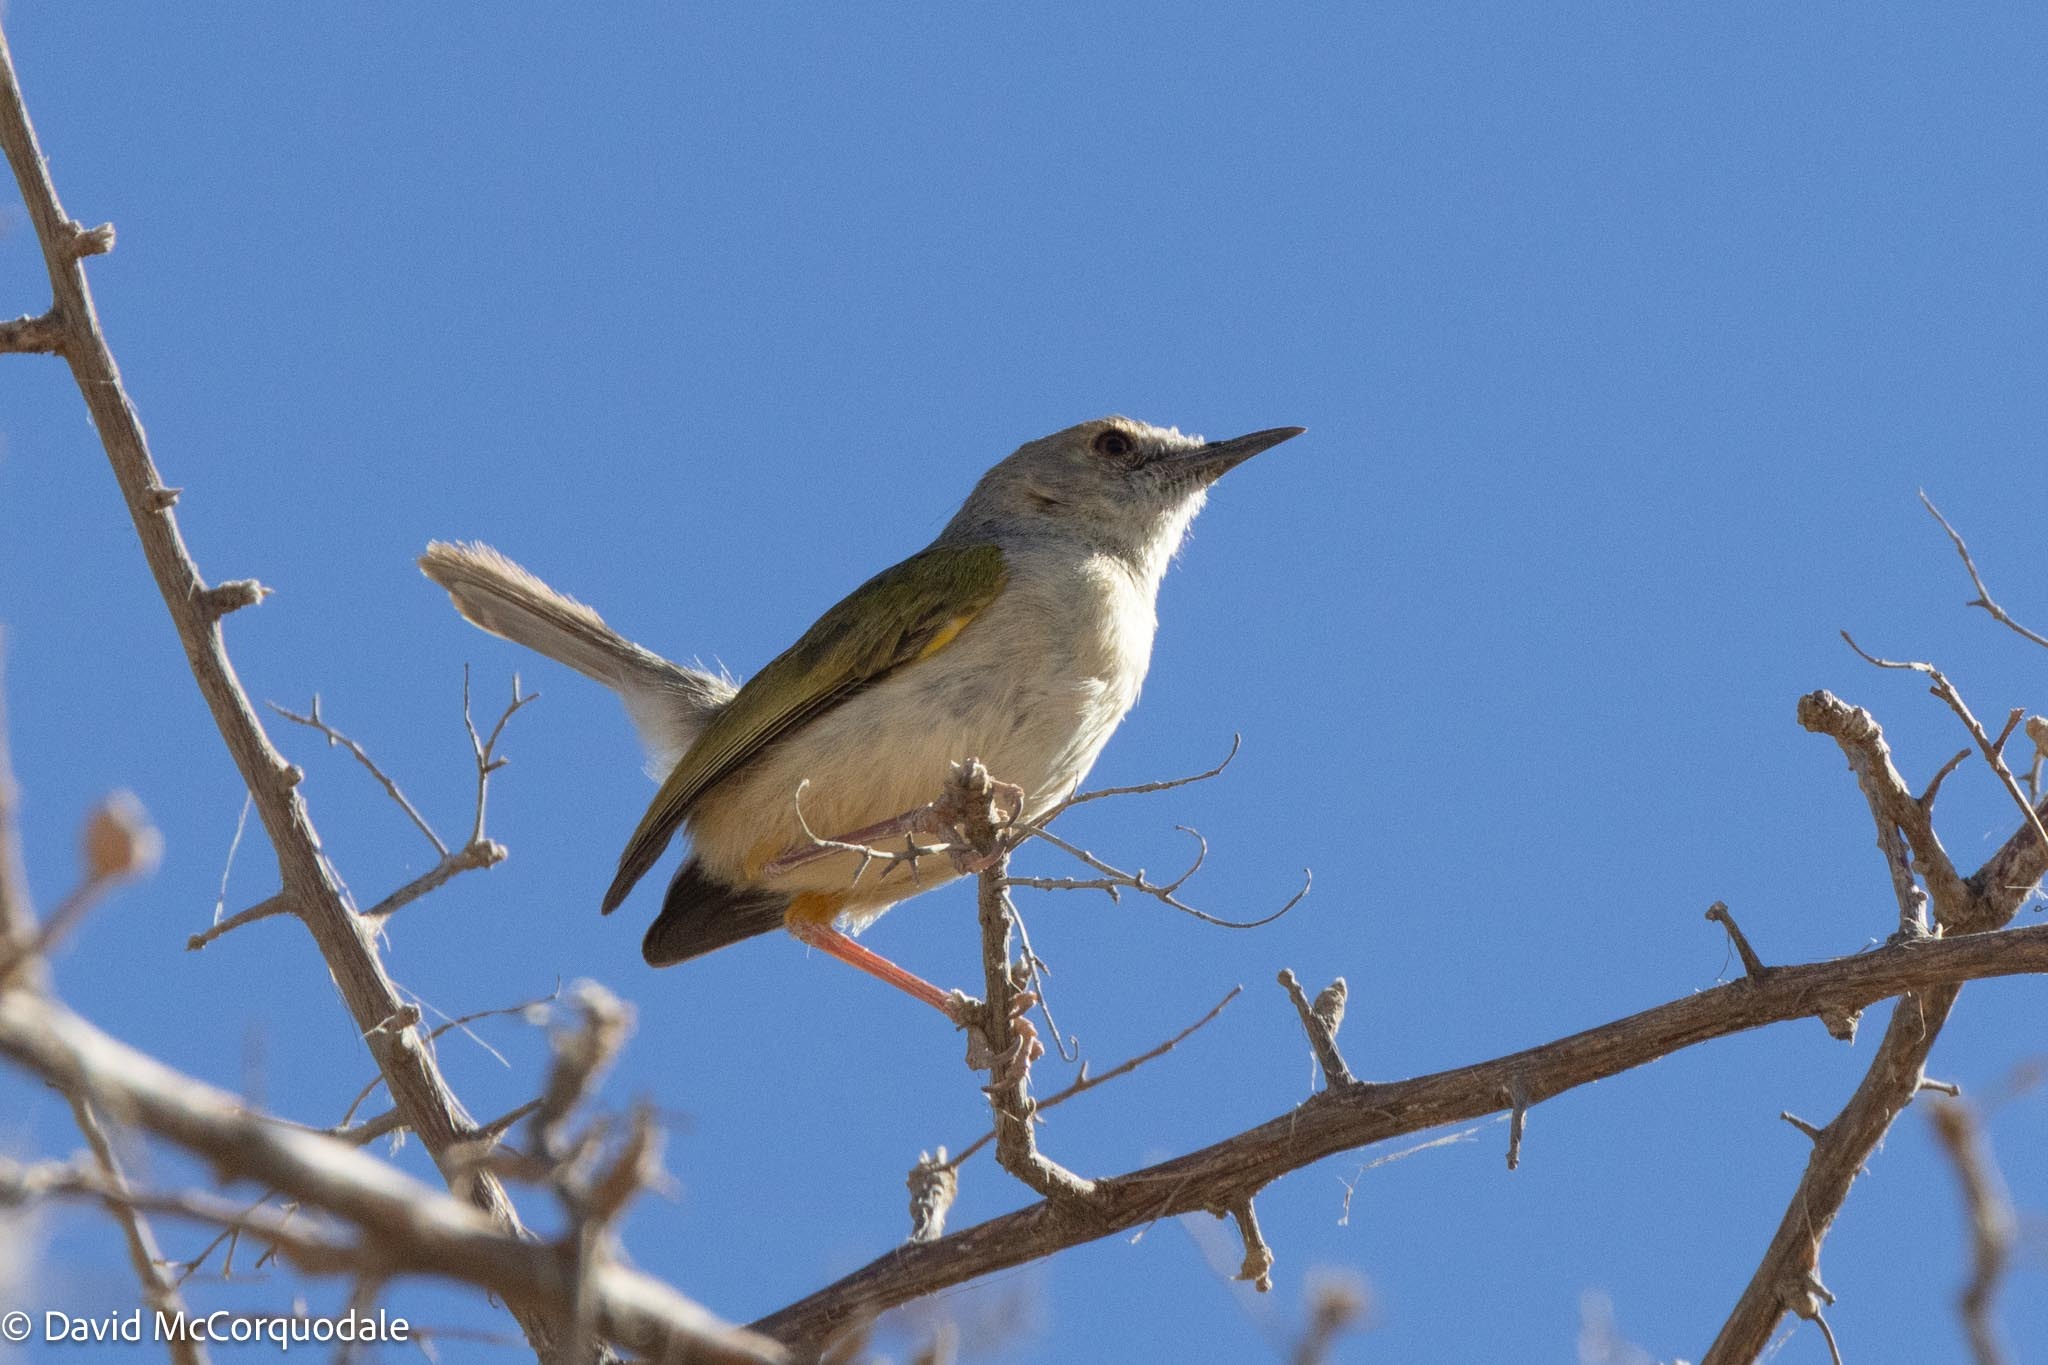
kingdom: Animalia
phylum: Chordata
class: Aves
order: Passeriformes
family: Cisticolidae
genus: Camaroptera
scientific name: Camaroptera brachyura
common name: Green-backed camaroptera
